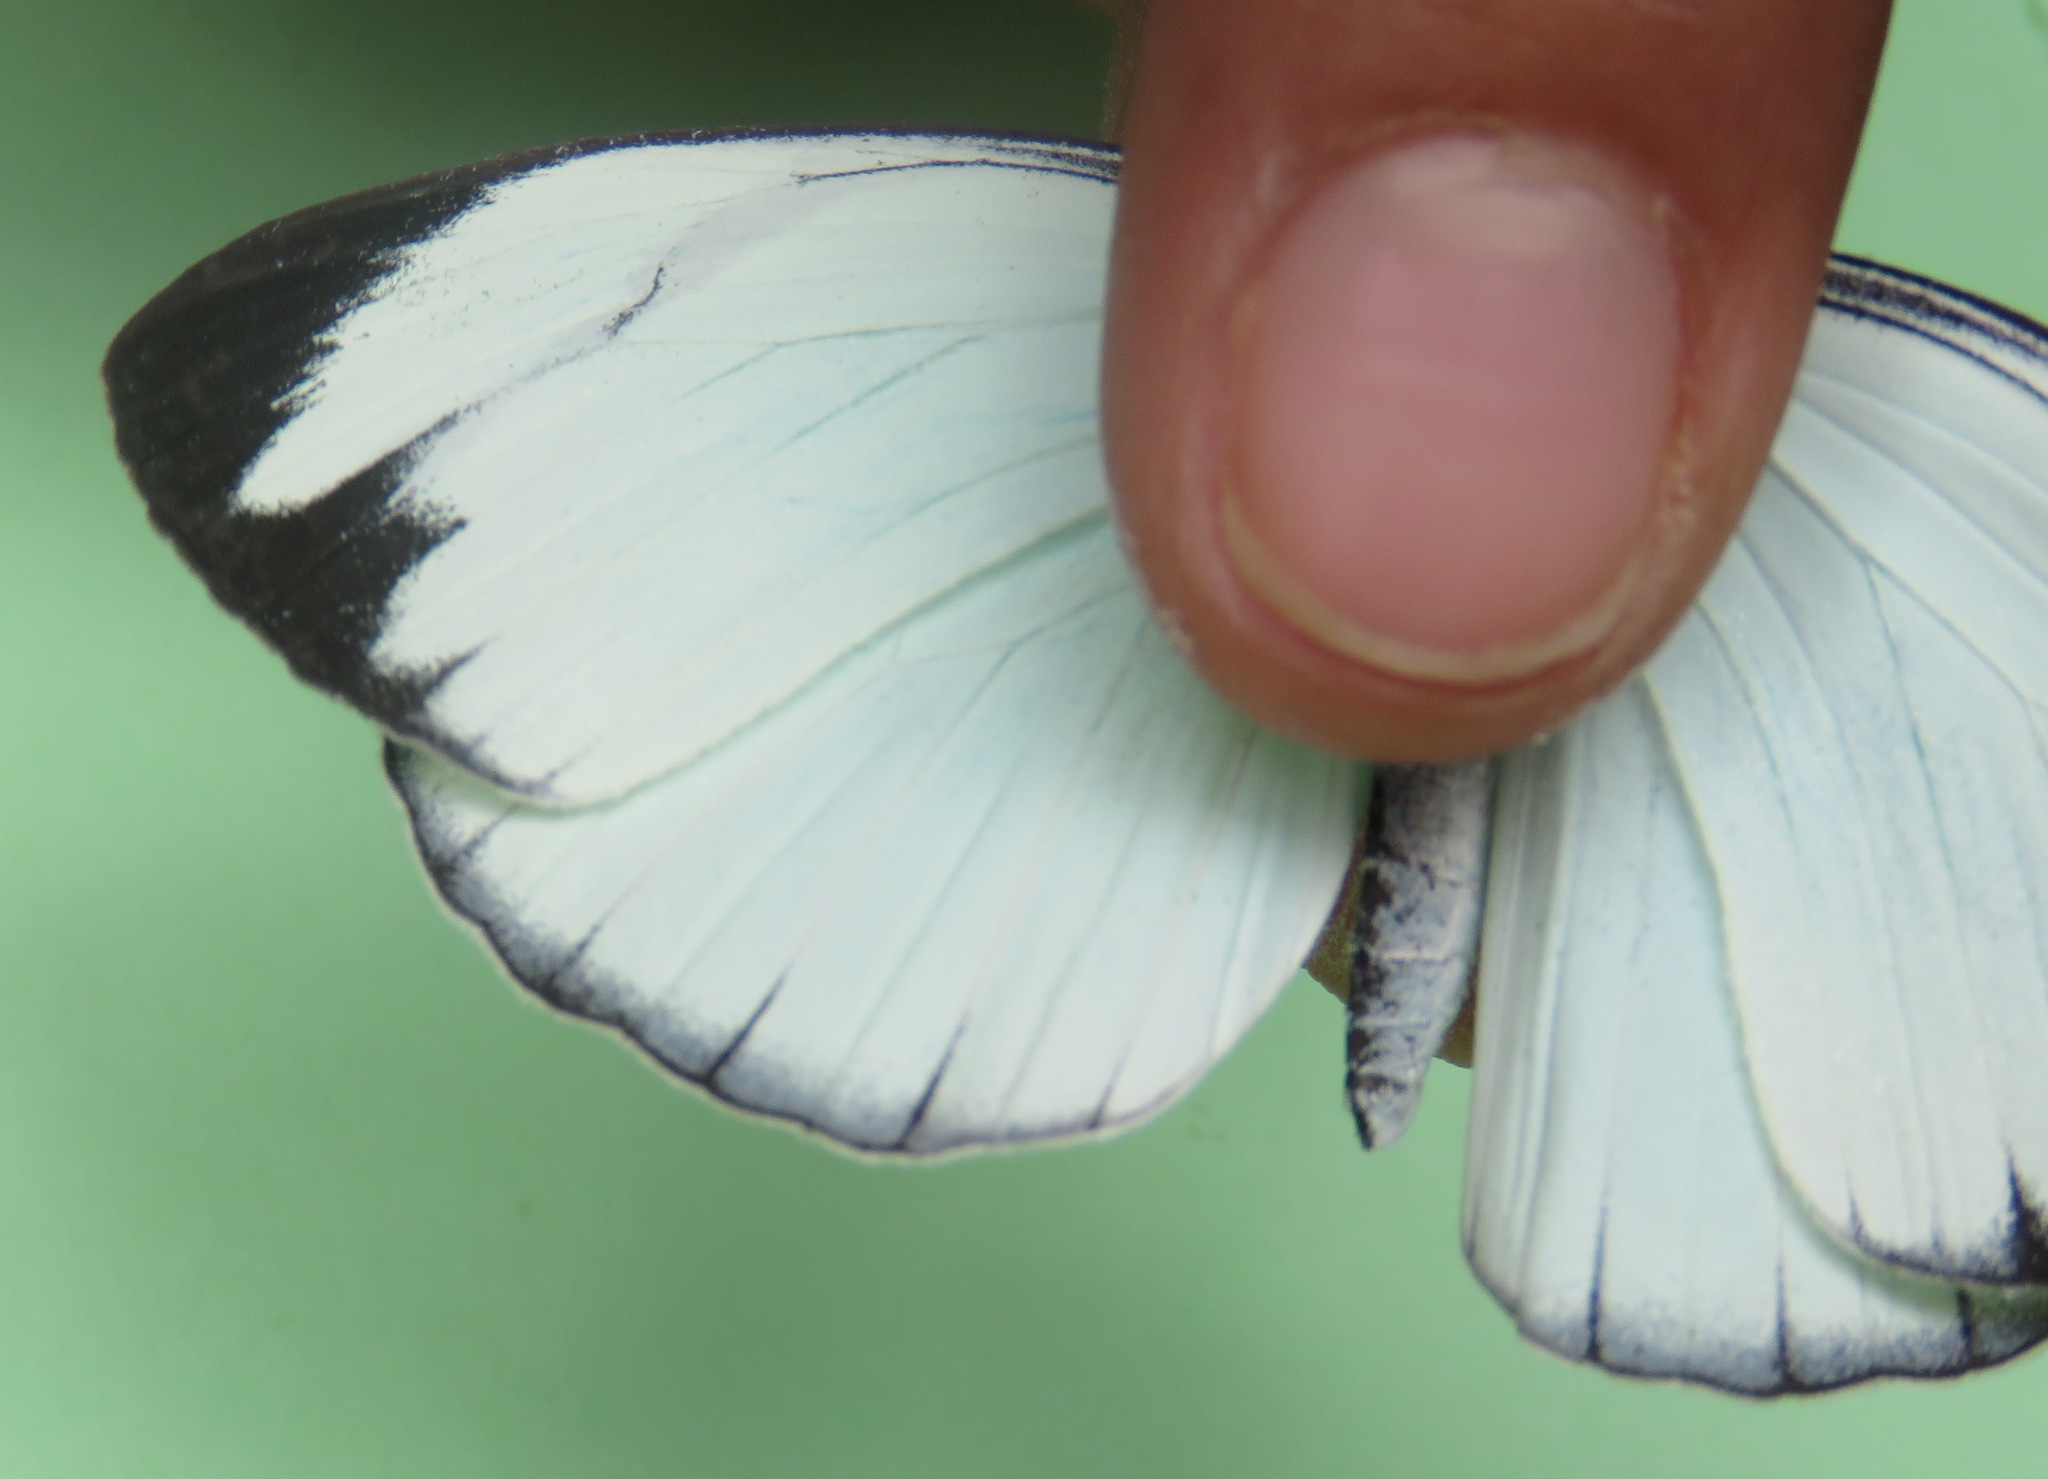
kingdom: Animalia
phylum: Arthropoda
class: Insecta
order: Lepidoptera
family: Pieridae
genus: Itaballia
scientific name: Itaballia demophile
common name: Cross-barred white
